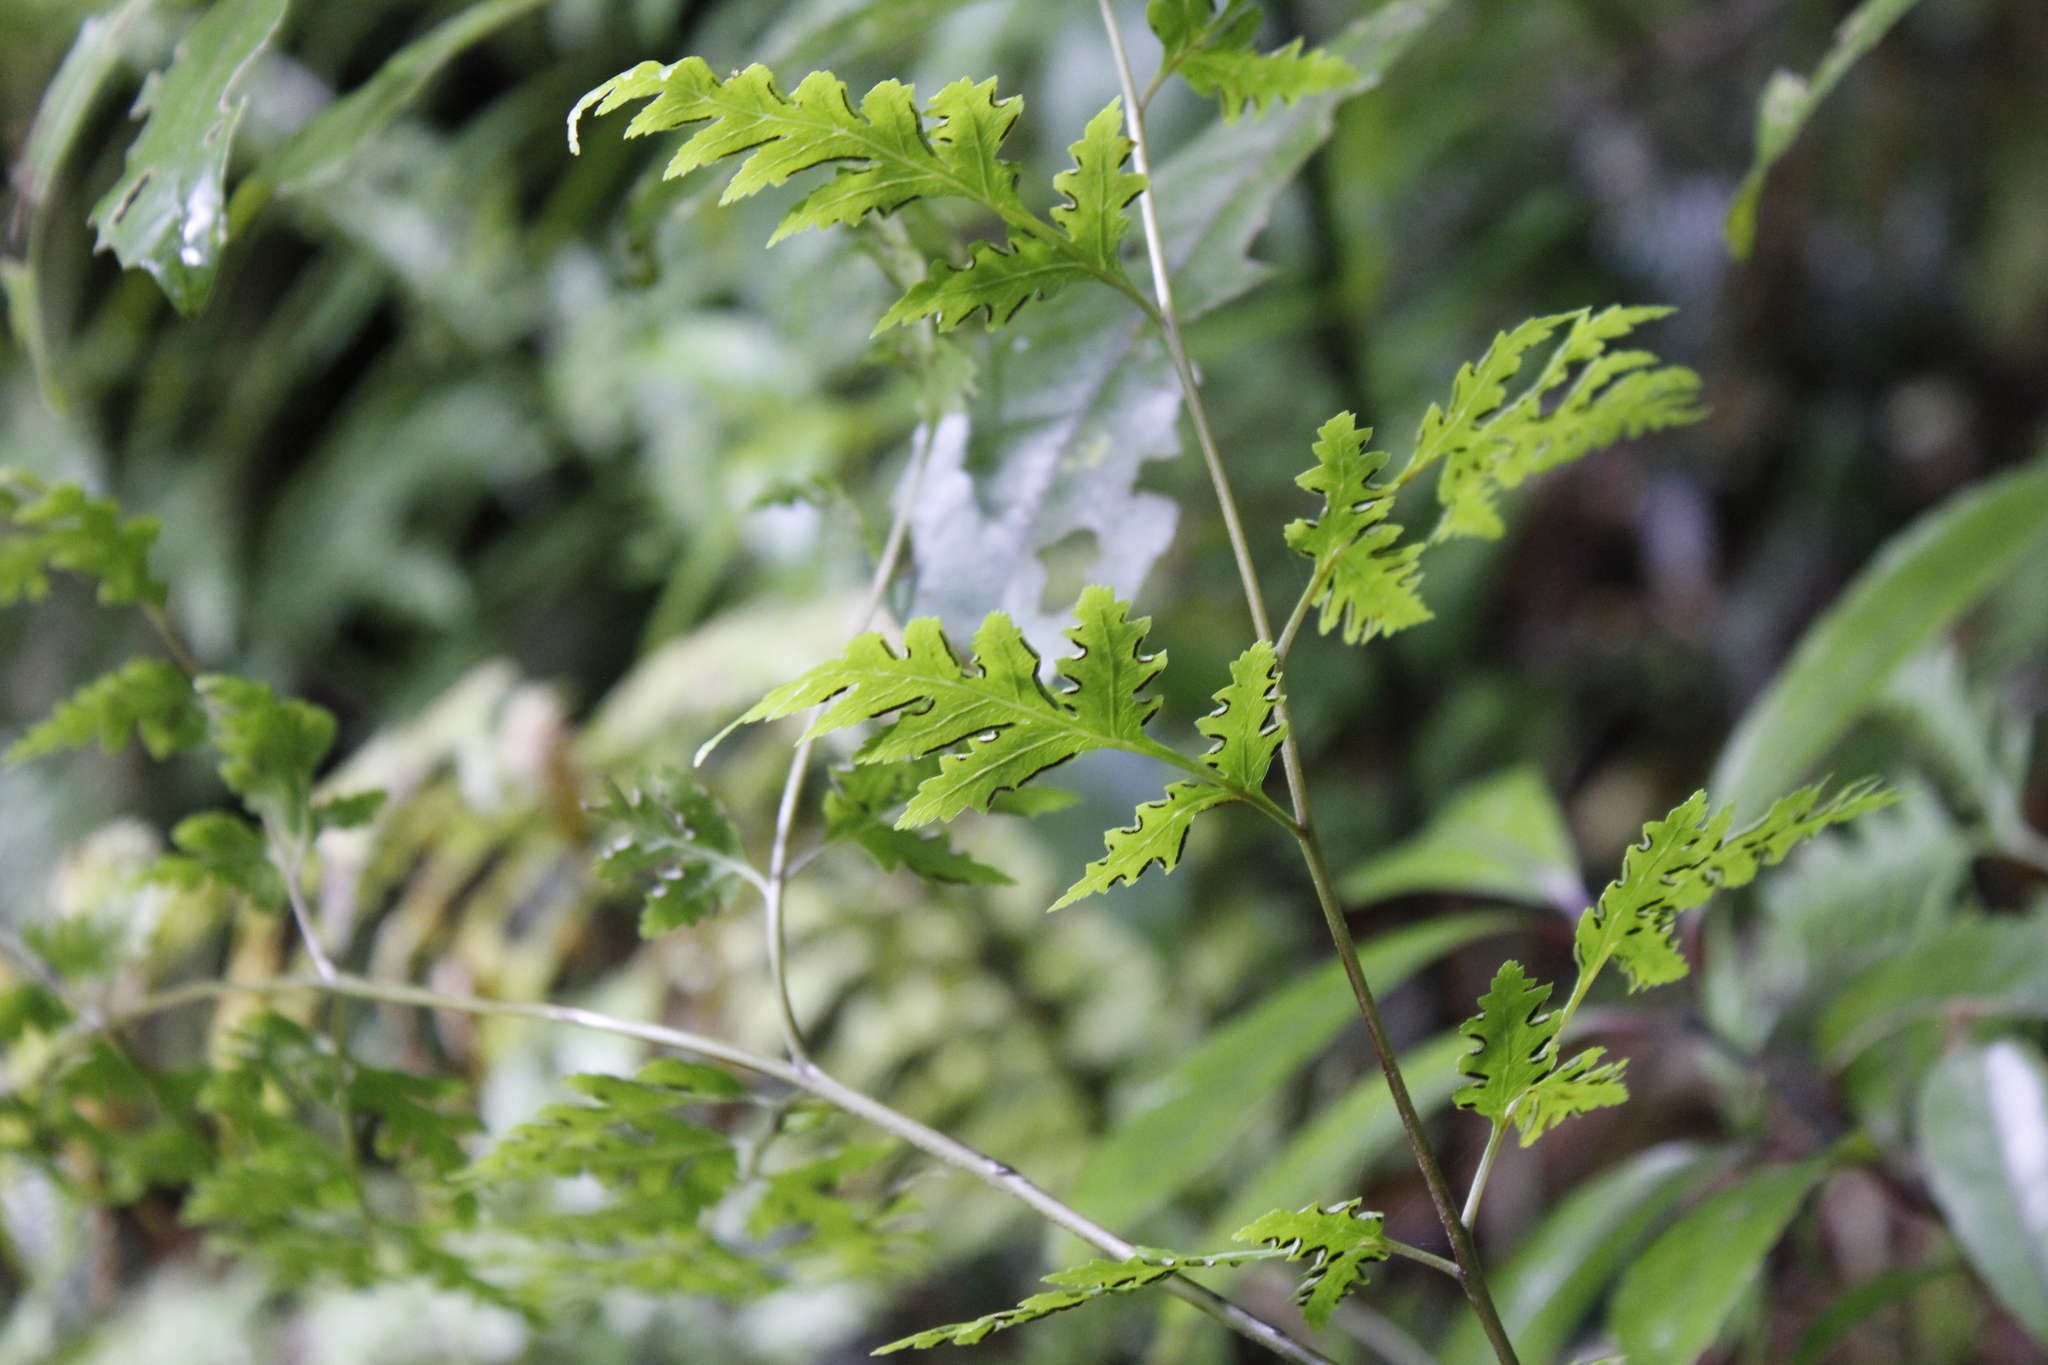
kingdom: Plantae
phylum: Tracheophyta
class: Polypodiopsida
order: Polypodiales
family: Pteridaceae
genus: Pteris
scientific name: Pteris macilenta
